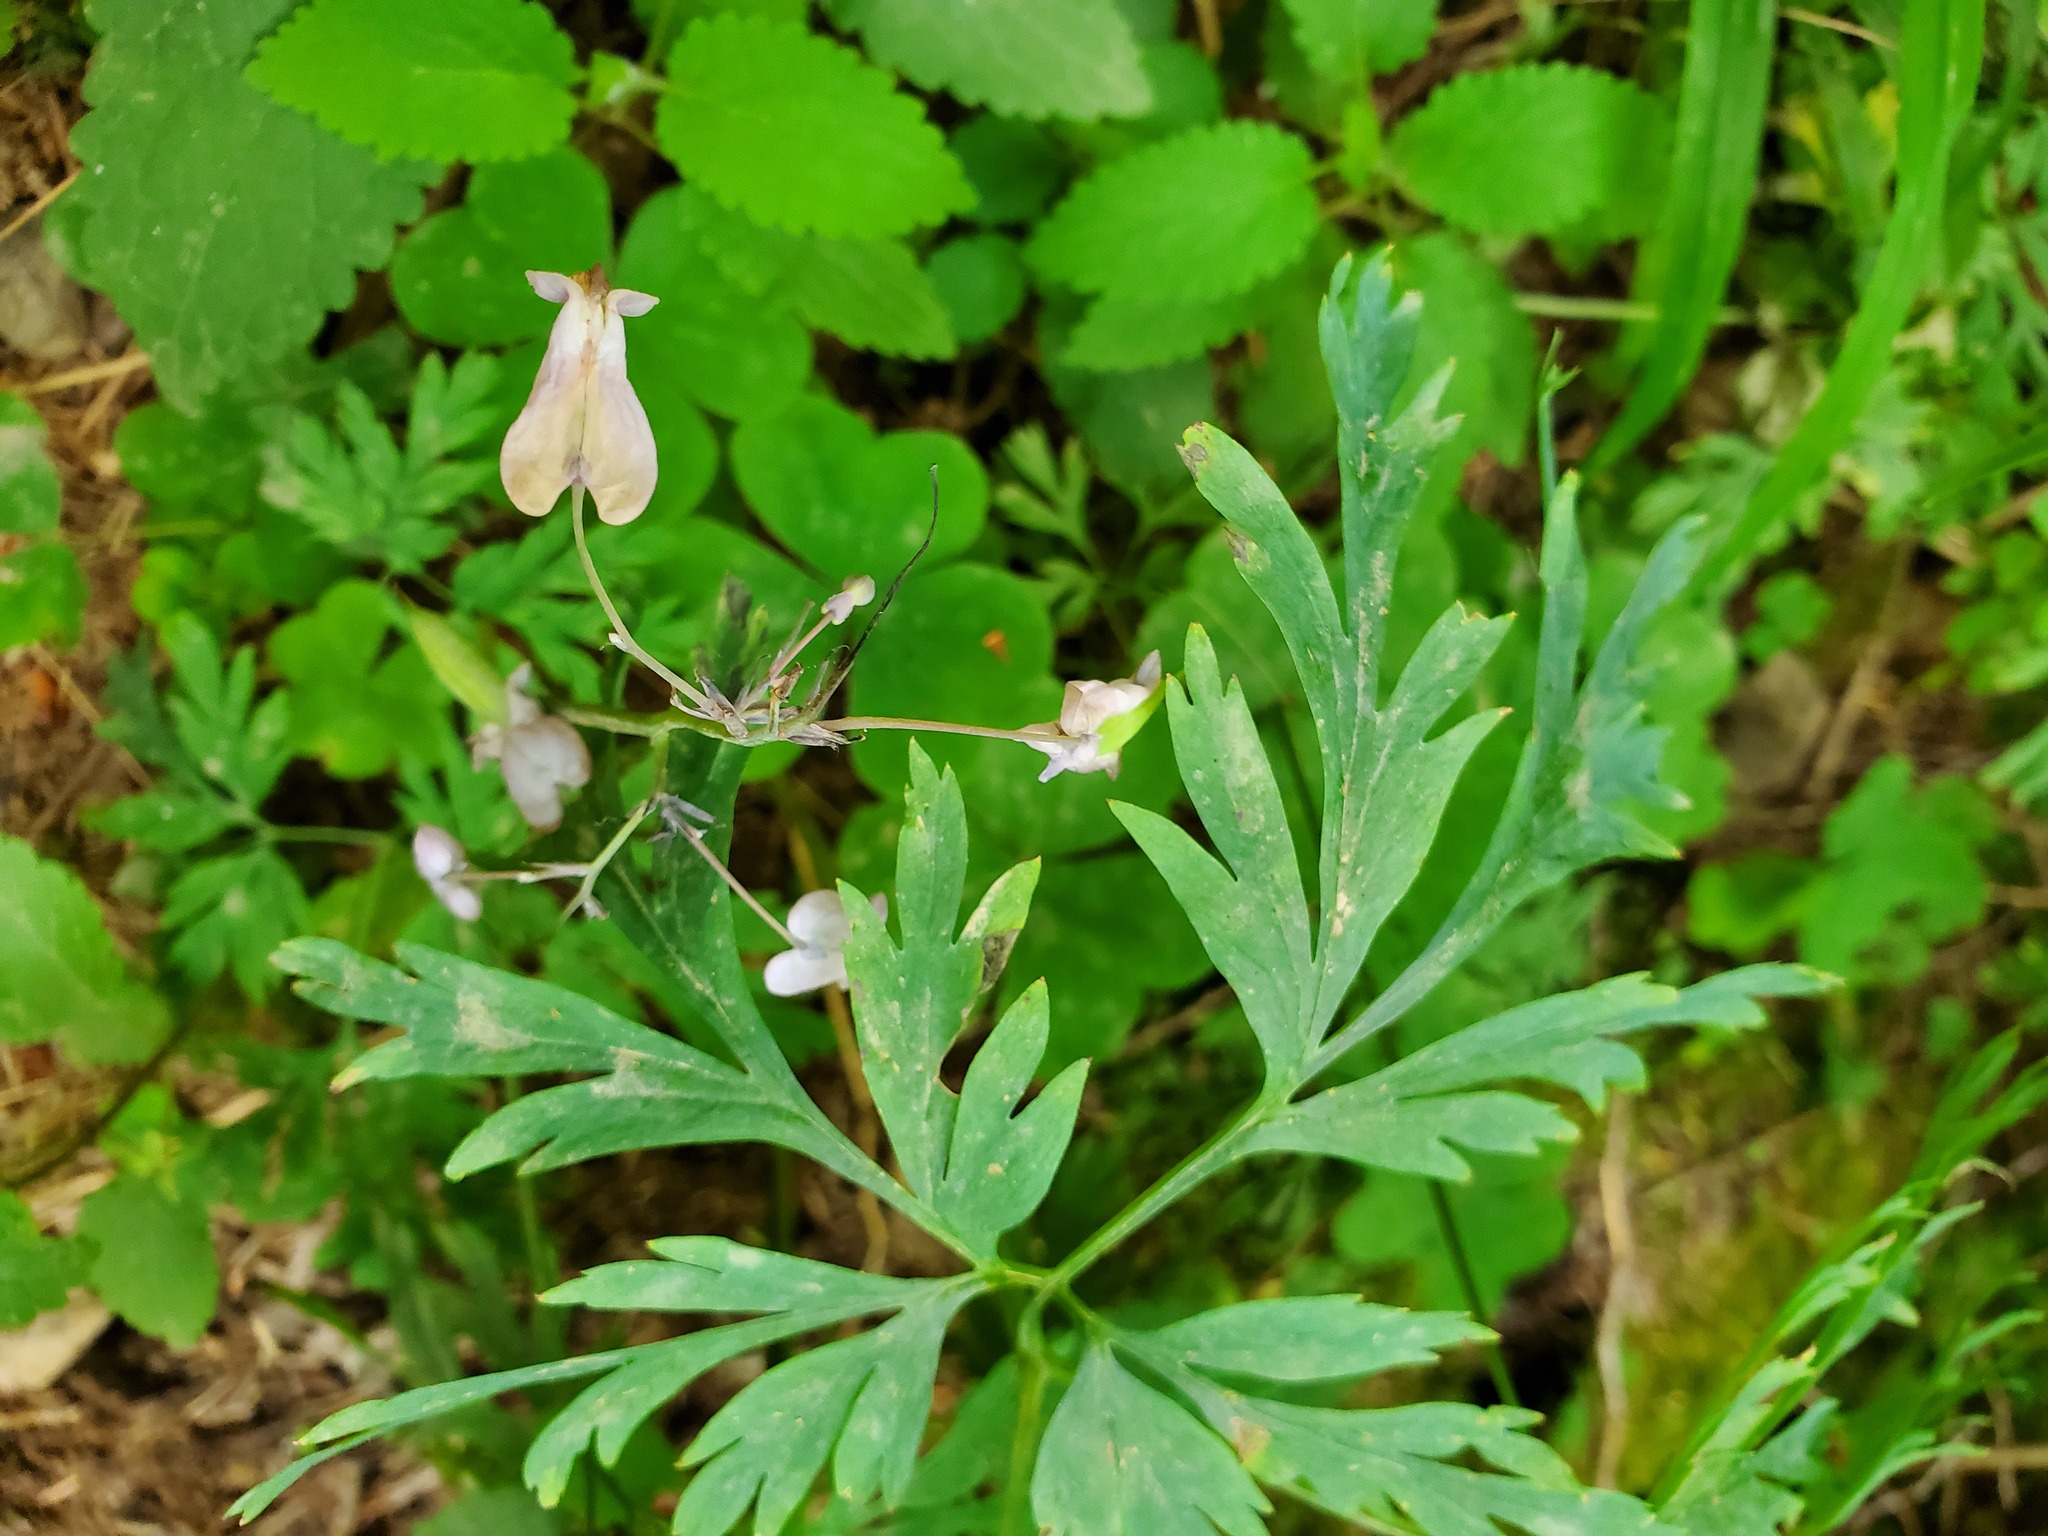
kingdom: Plantae
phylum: Tracheophyta
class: Magnoliopsida
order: Ranunculales
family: Papaveraceae
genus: Dicentra
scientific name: Dicentra formosa
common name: Bleeding-heart
